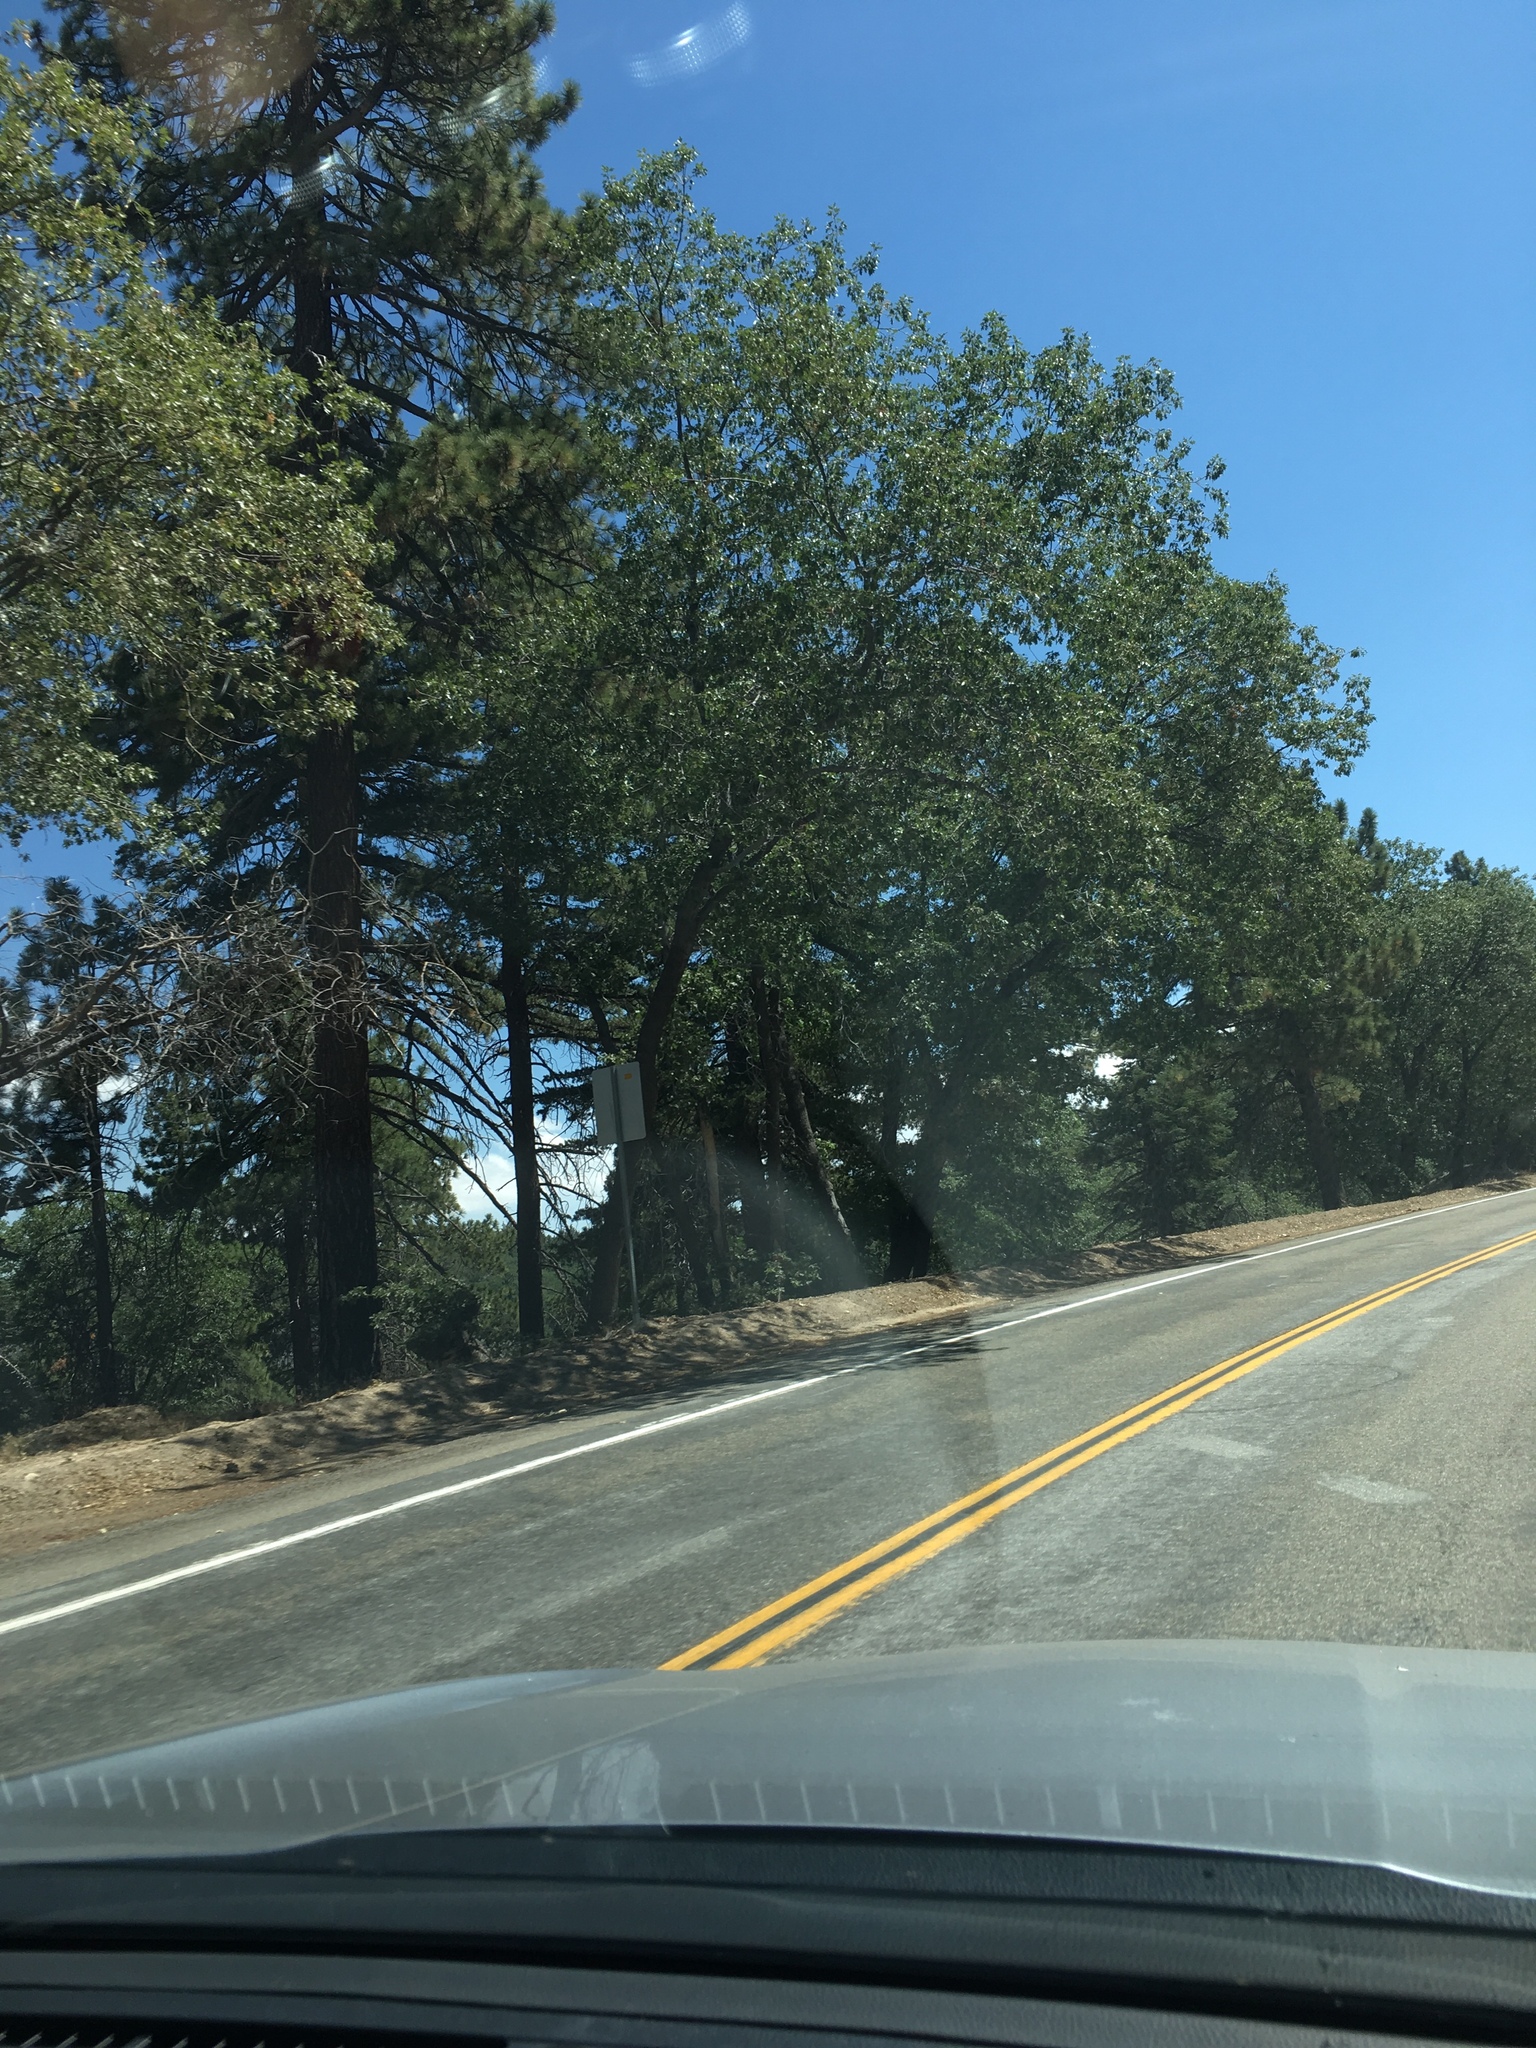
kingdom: Plantae
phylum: Tracheophyta
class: Magnoliopsida
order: Fagales
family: Fagaceae
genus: Quercus
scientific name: Quercus kelloggii
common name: California black oak
